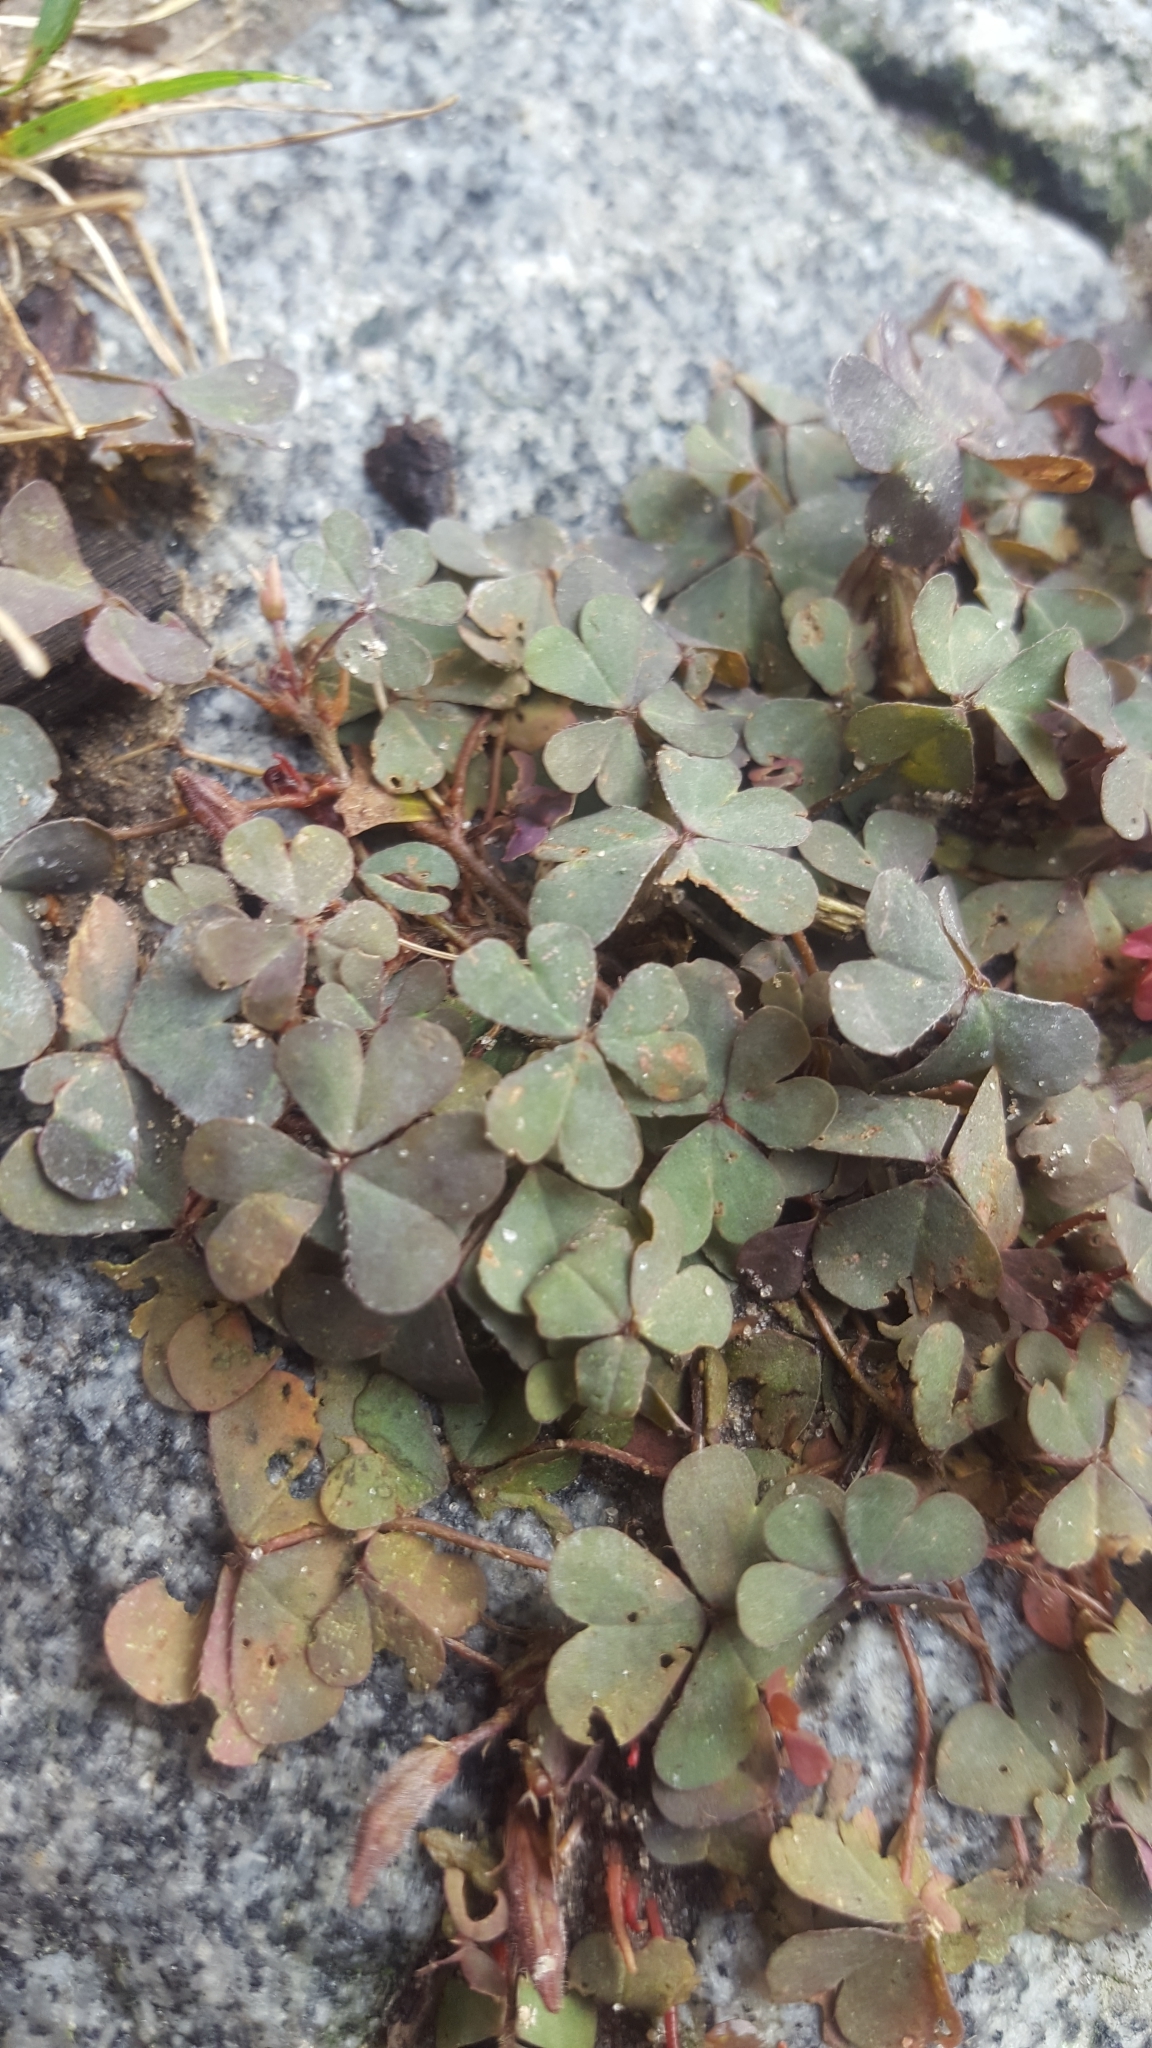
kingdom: Plantae
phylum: Tracheophyta
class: Magnoliopsida
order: Oxalidales
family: Oxalidaceae
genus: Oxalis
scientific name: Oxalis corniculata
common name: Procumbent yellow-sorrel
